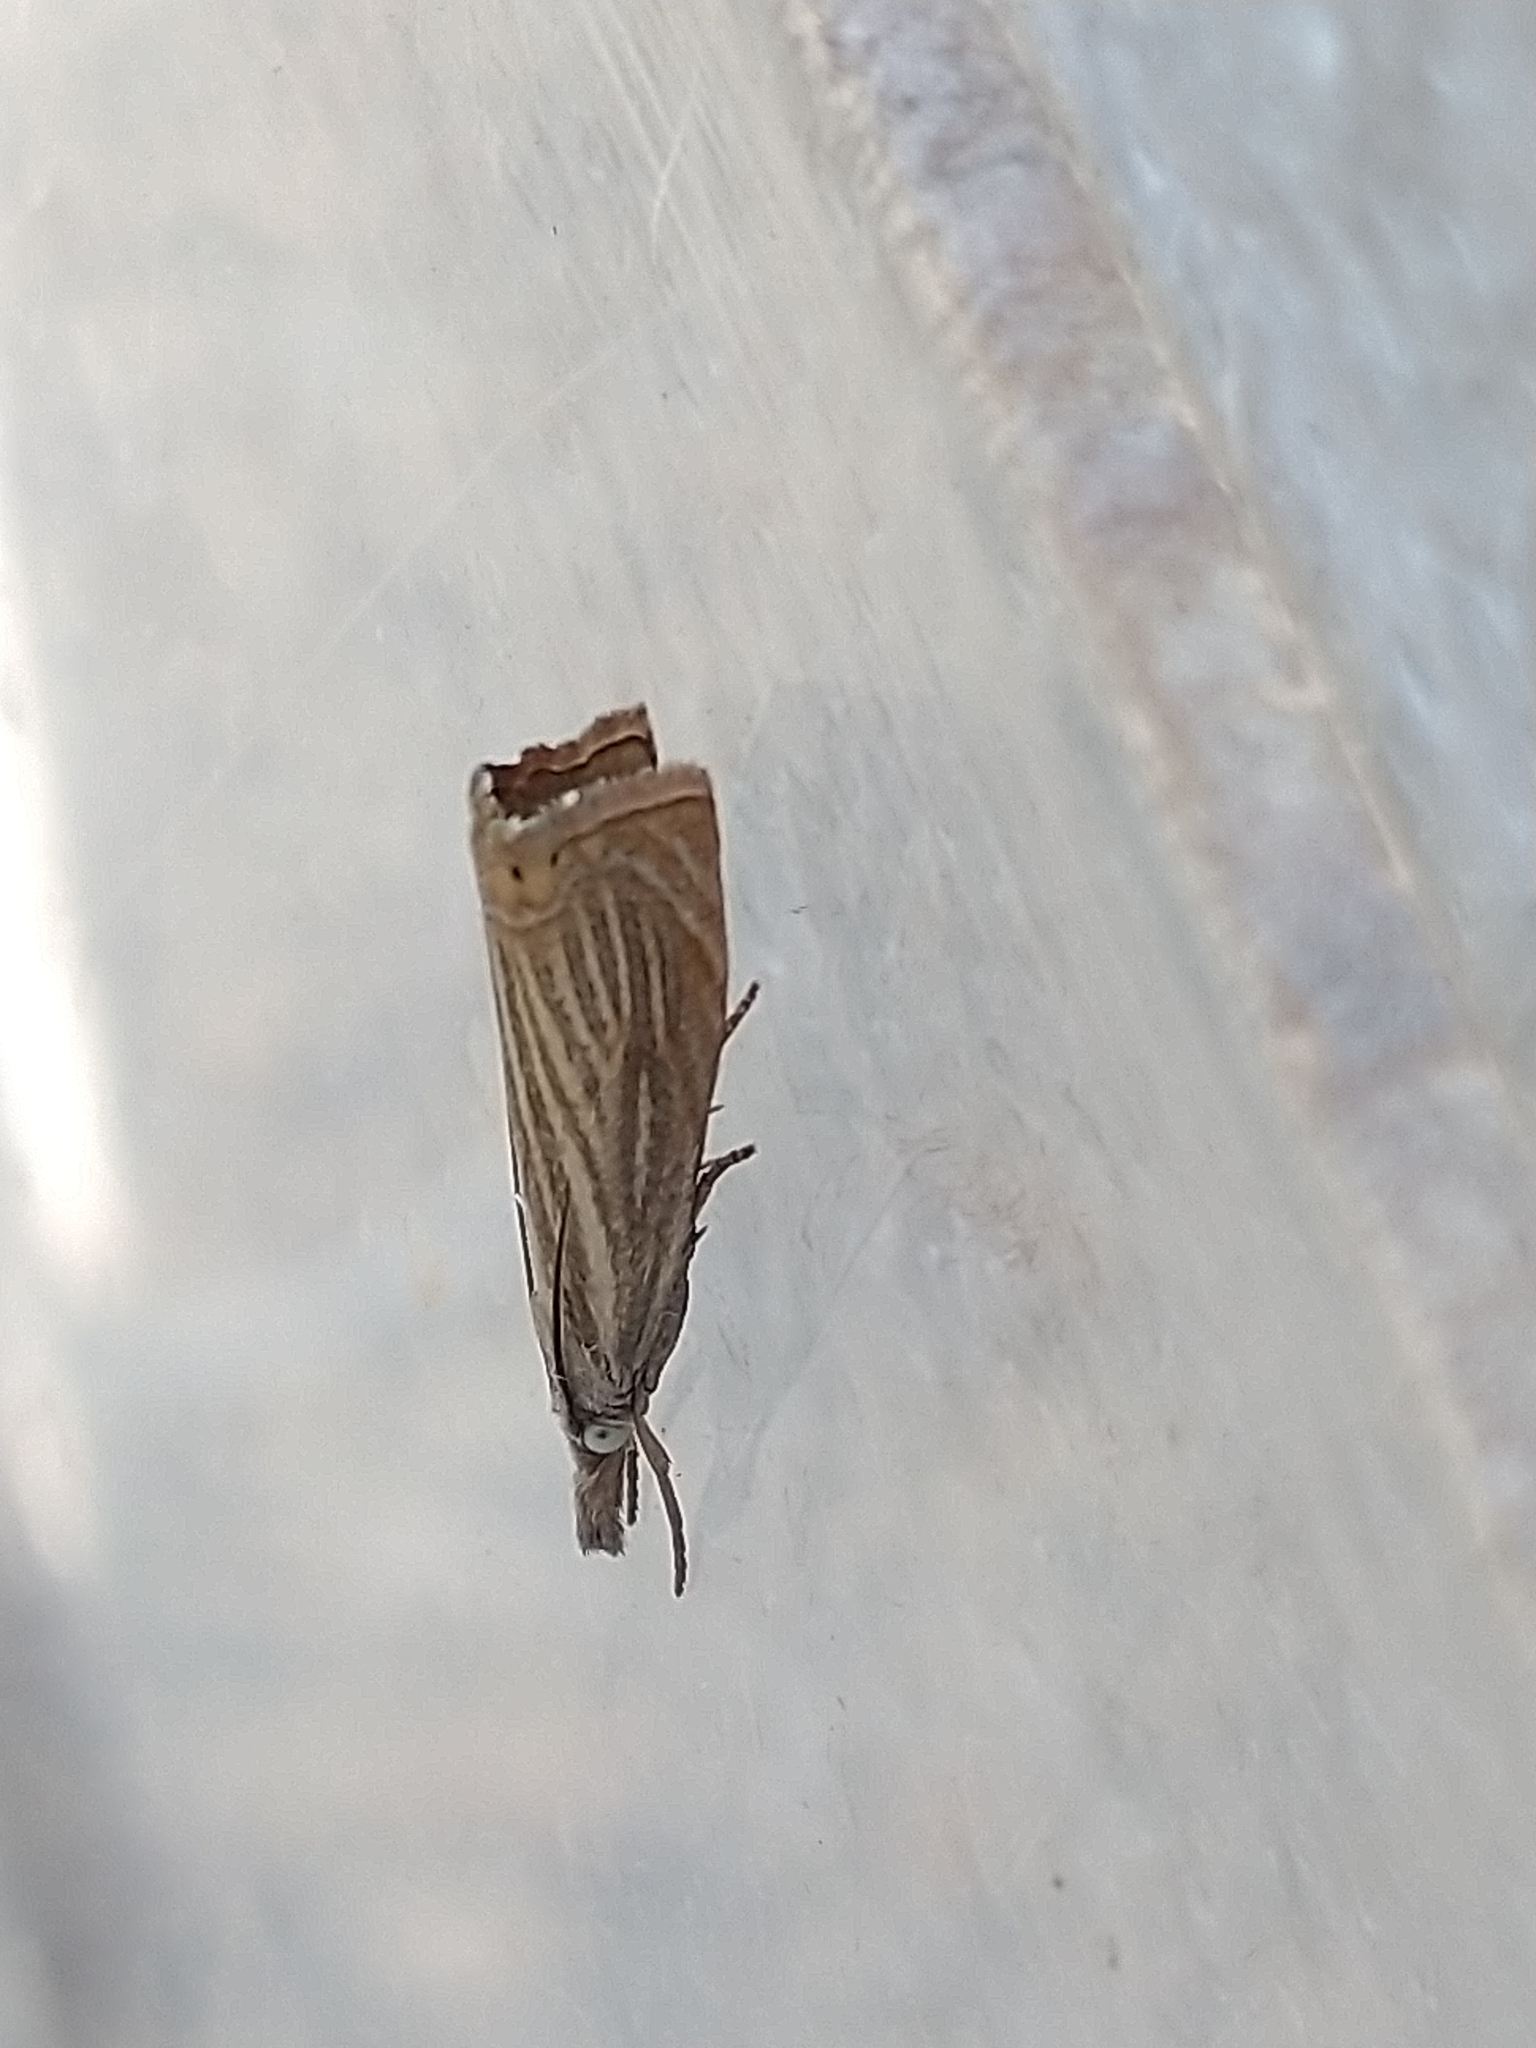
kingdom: Animalia
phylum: Arthropoda
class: Insecta
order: Lepidoptera
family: Crambidae
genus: Chrysoteuchia
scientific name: Chrysoteuchia culmella
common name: Garden grass-veneer
